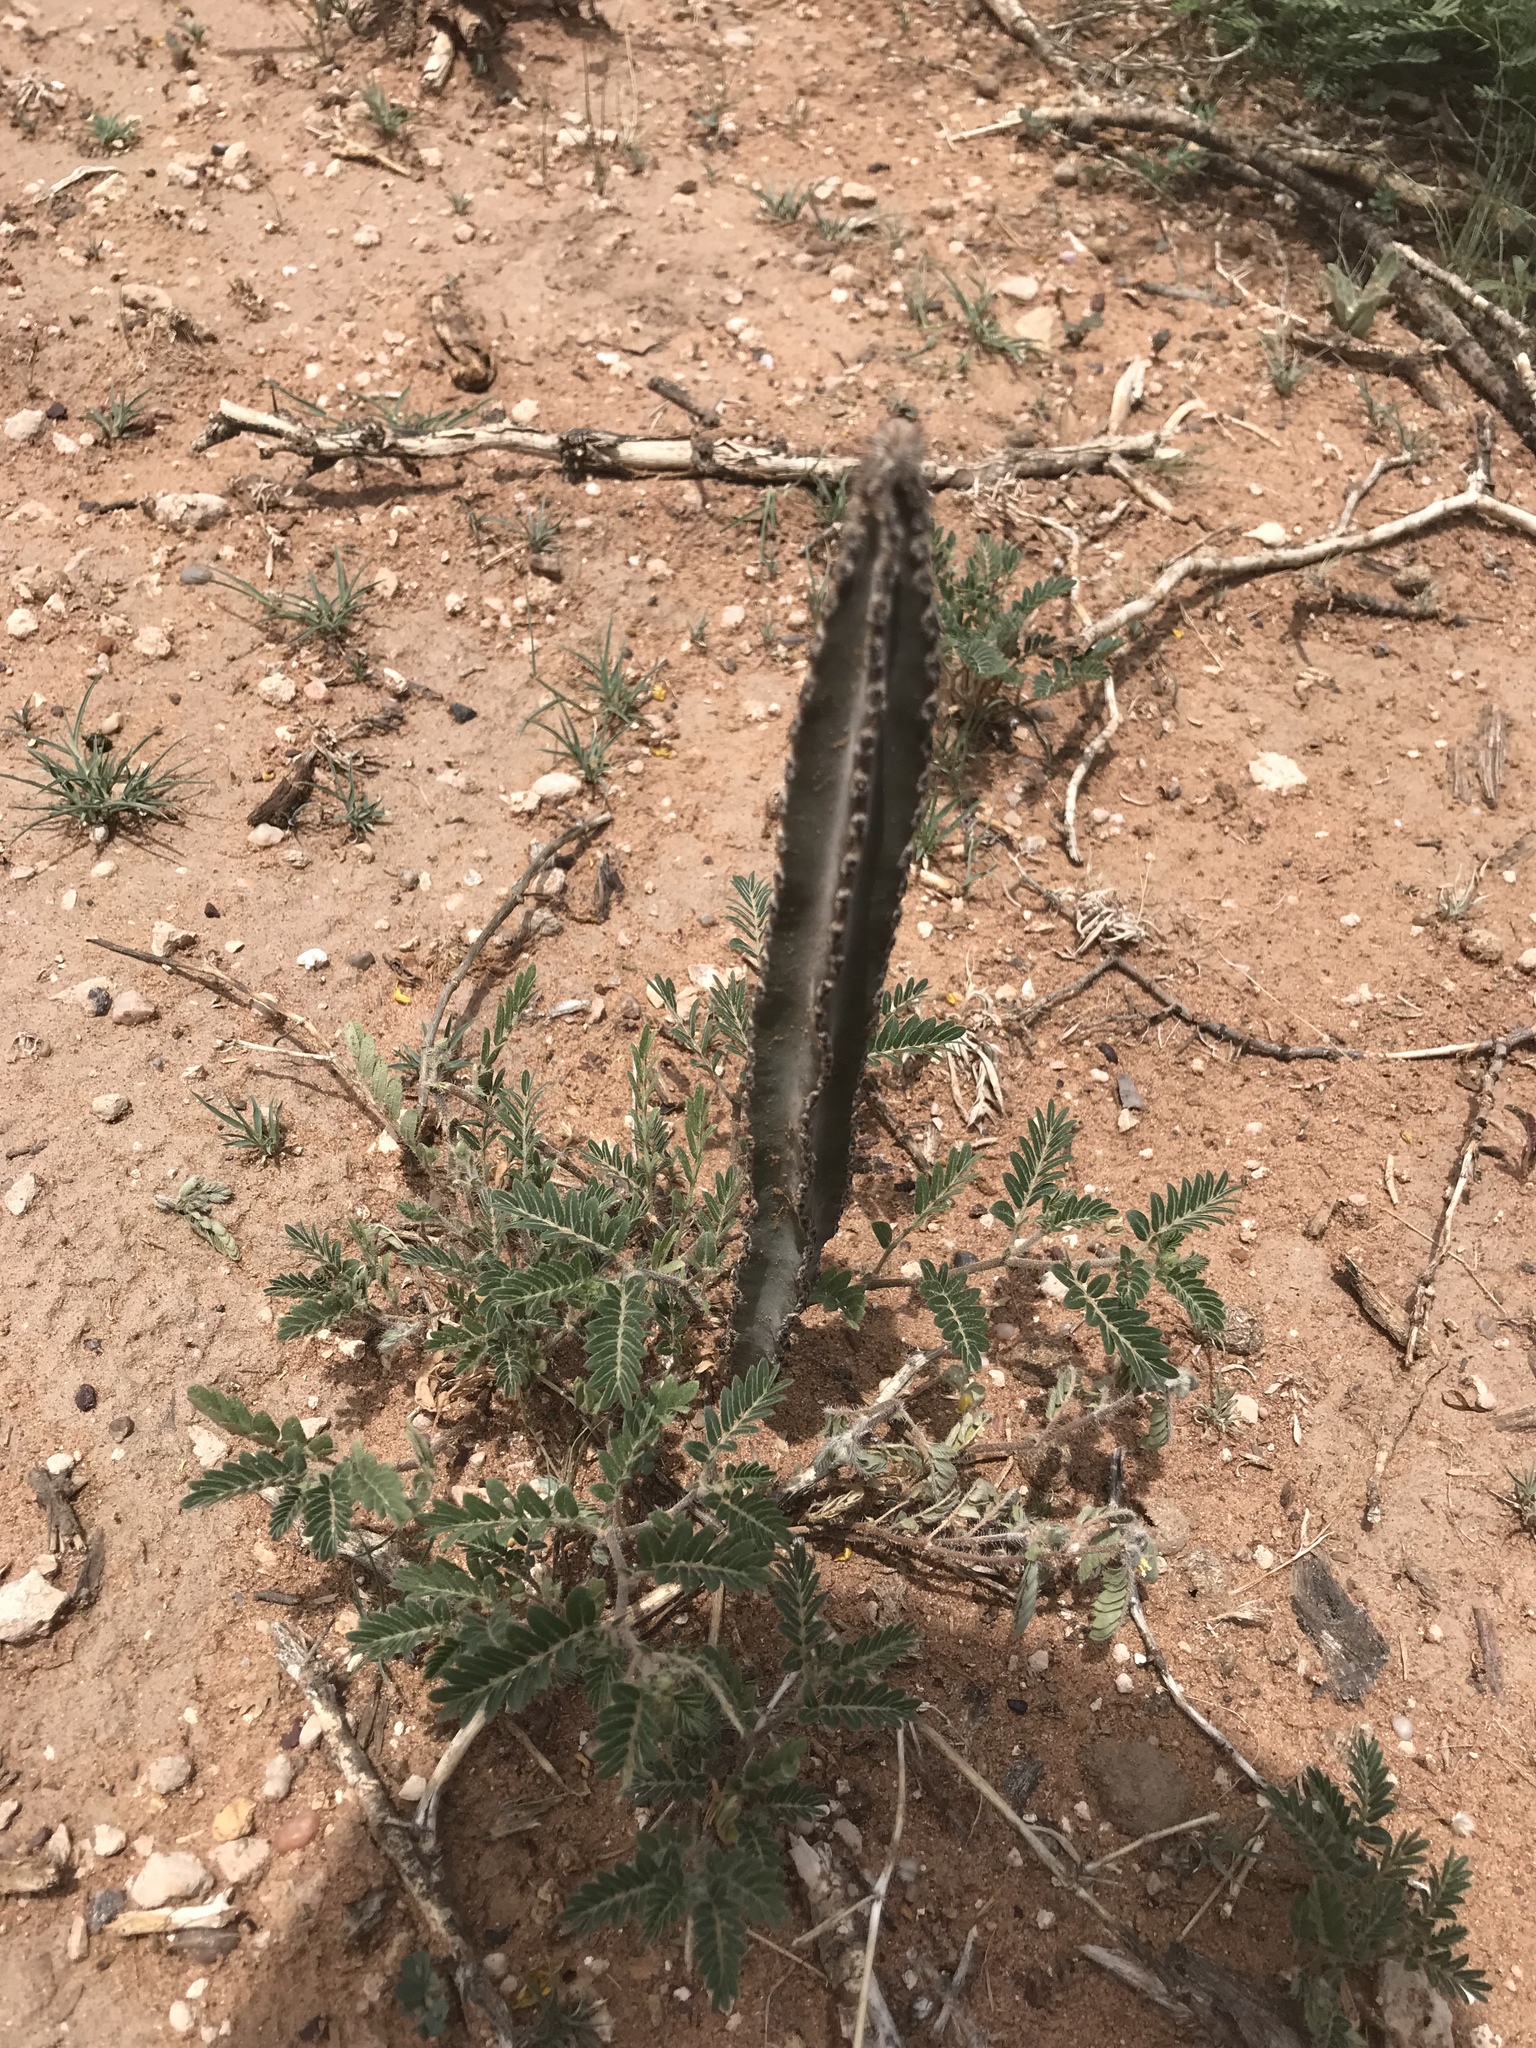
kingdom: Plantae
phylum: Tracheophyta
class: Magnoliopsida
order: Caryophyllales
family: Cactaceae
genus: Peniocereus
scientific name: Peniocereus greggii
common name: Desert night-blooming cereus
